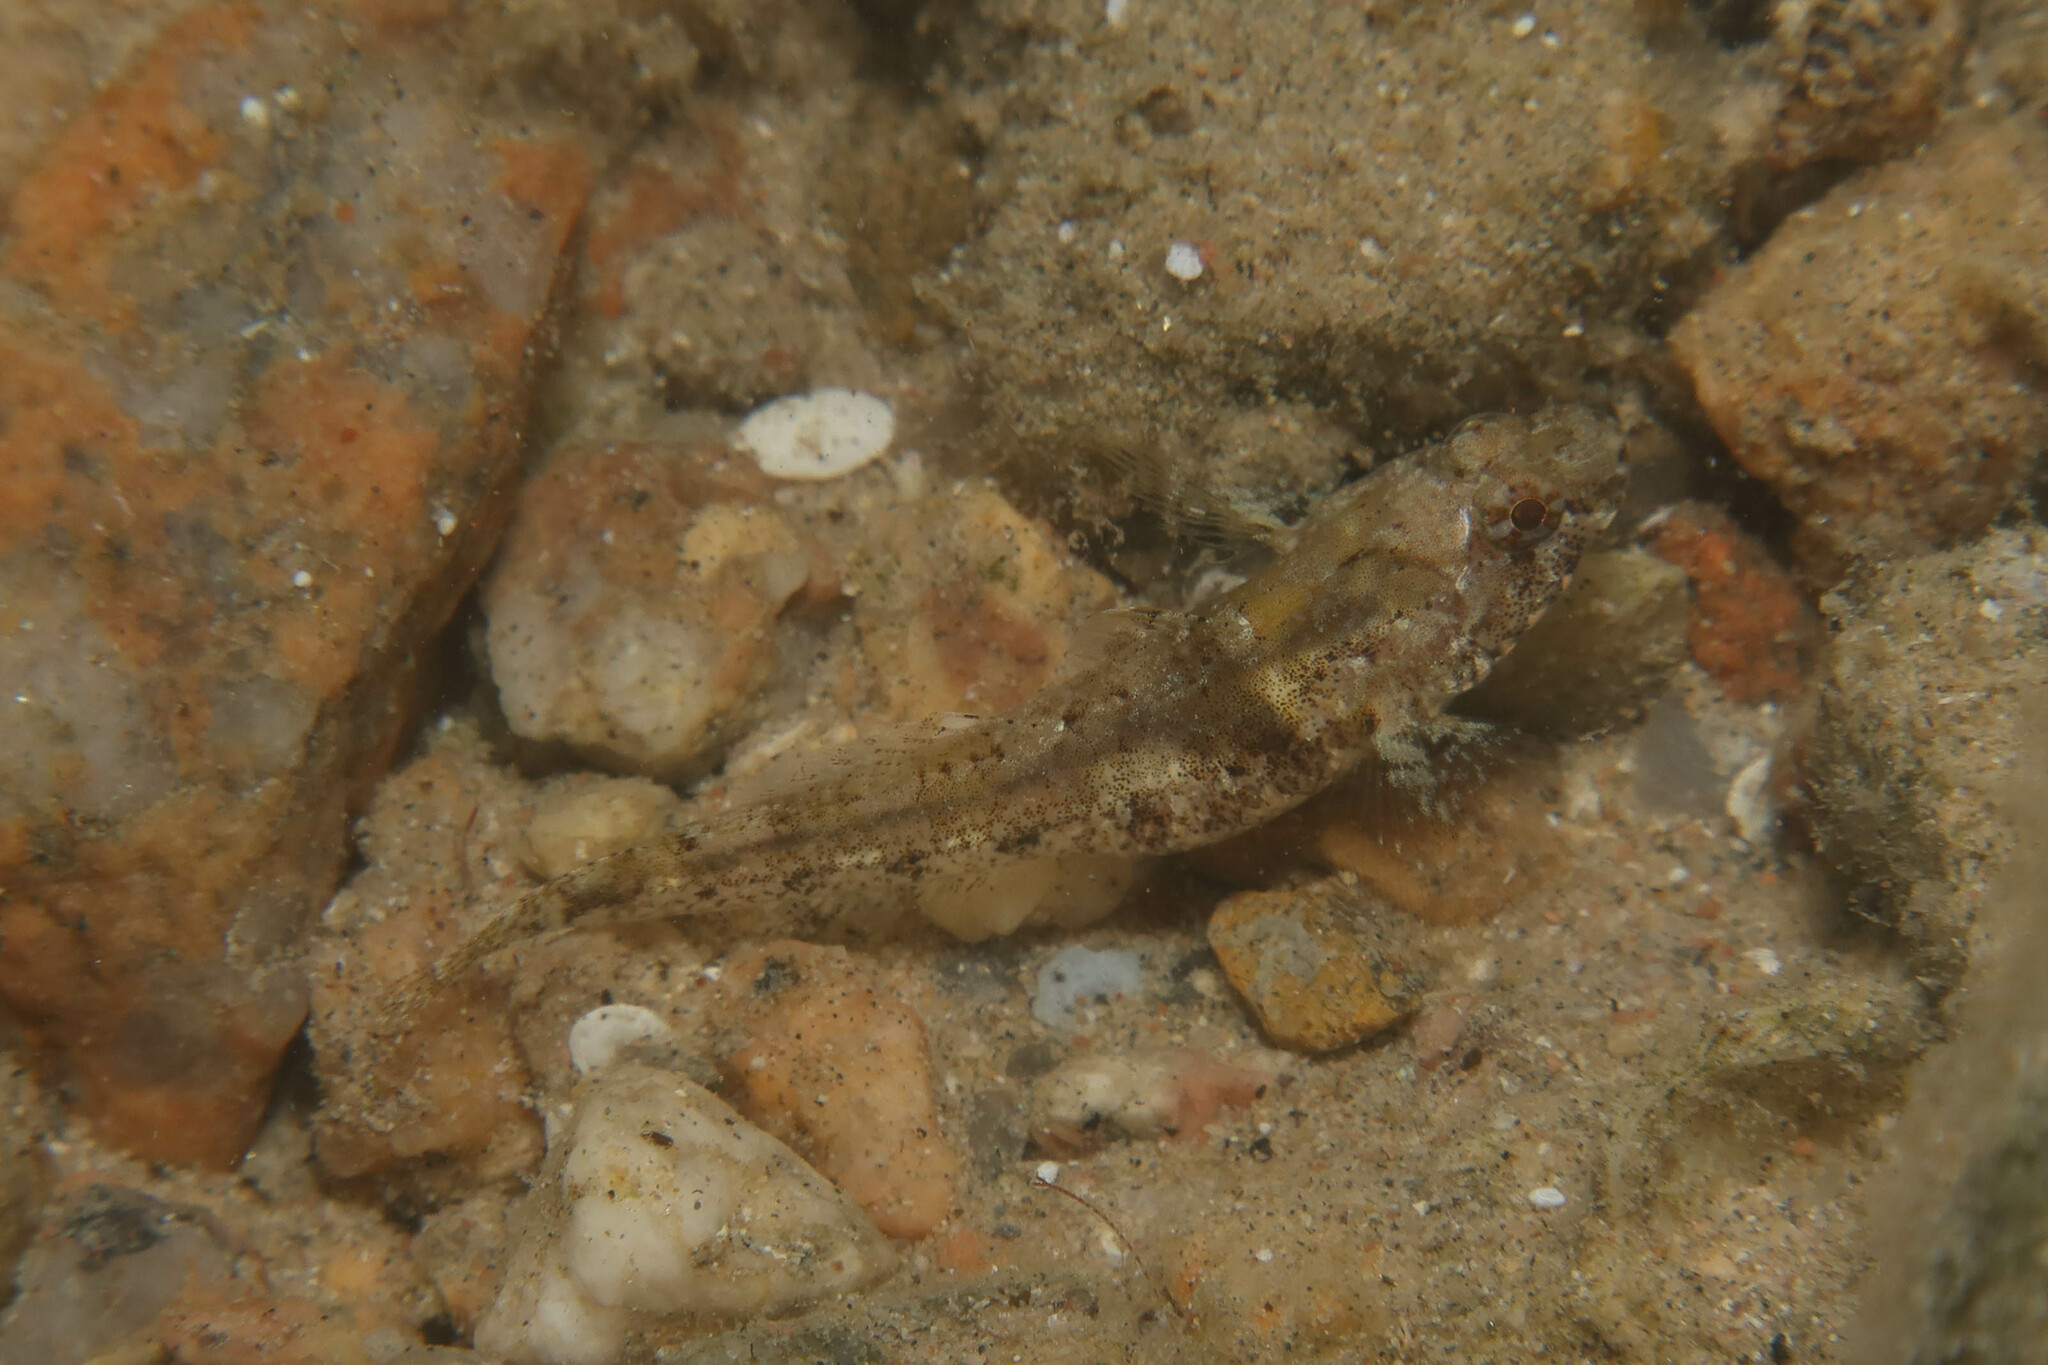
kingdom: Animalia
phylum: Chordata
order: Perciformes
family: Gobiidae
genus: Coryogalops
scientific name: Coryogalops anomolus
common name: Anomolous goby
